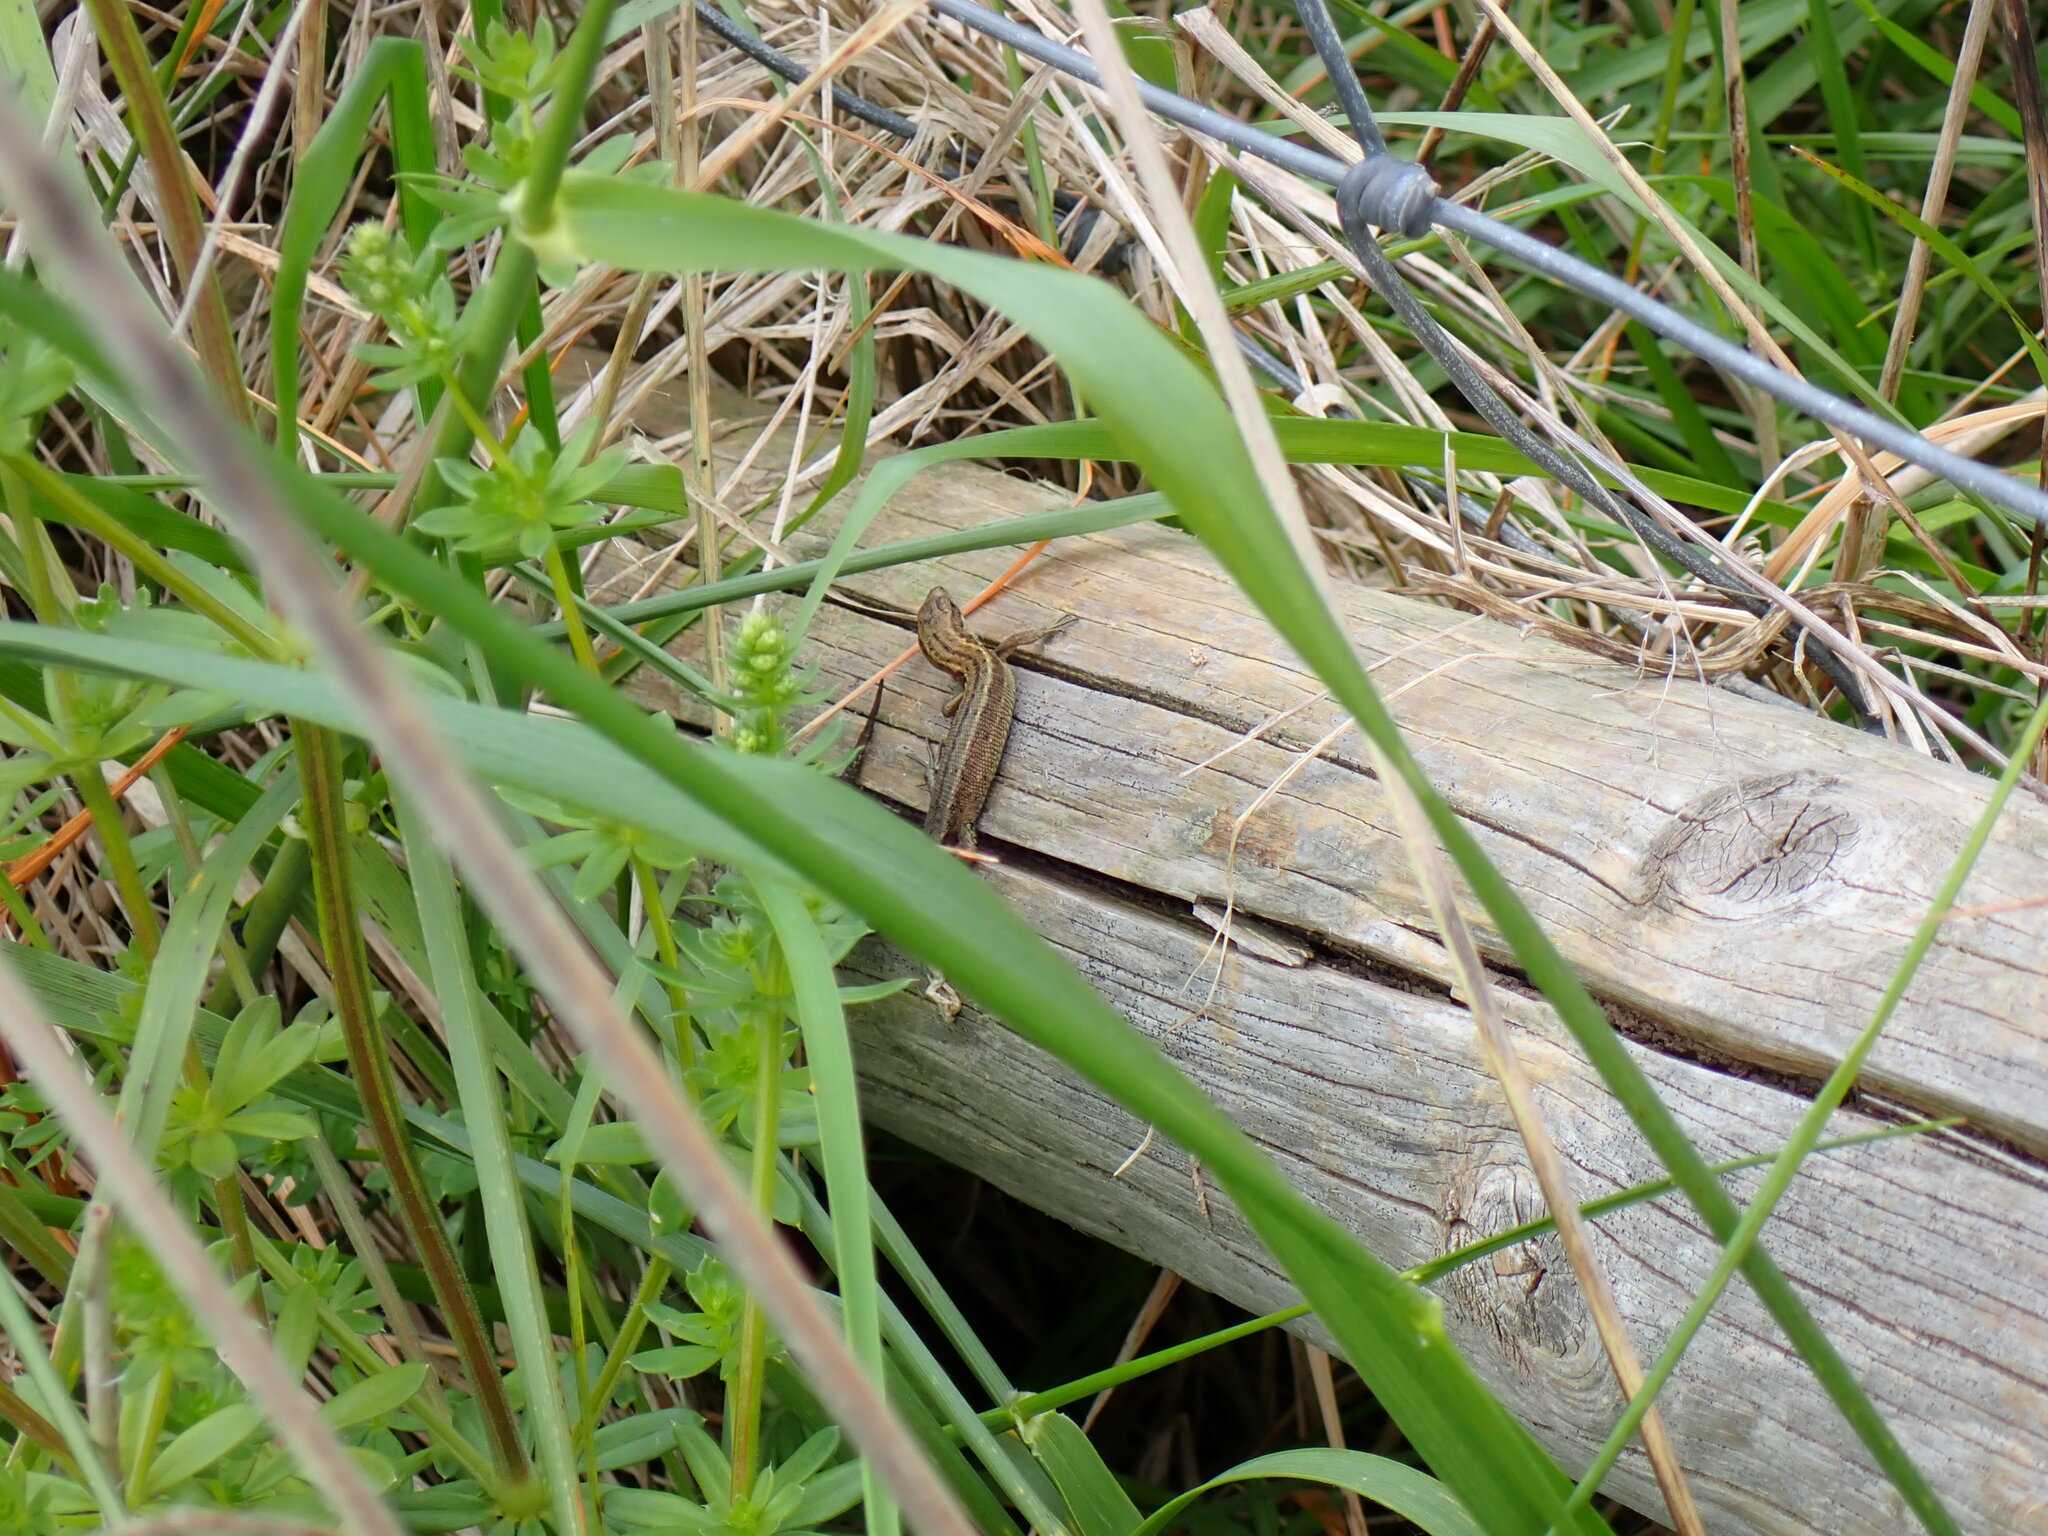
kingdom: Animalia
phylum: Chordata
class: Squamata
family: Lacertidae
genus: Zootoca
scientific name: Zootoca vivipara
